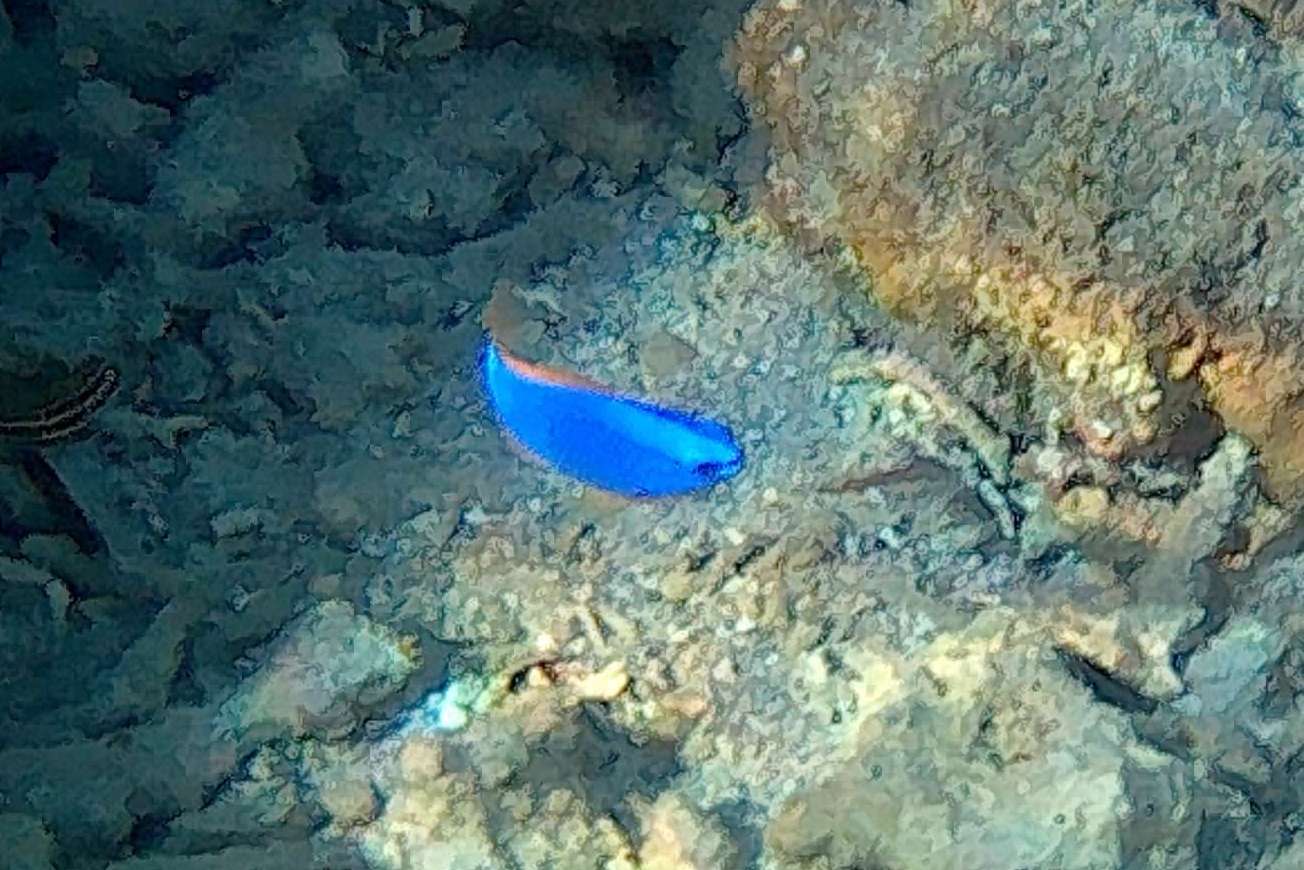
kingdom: Animalia
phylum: Chordata
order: Perciformes
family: Pomacentridae
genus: Chrysiptera
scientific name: Chrysiptera taupou
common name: Fiji damsel
